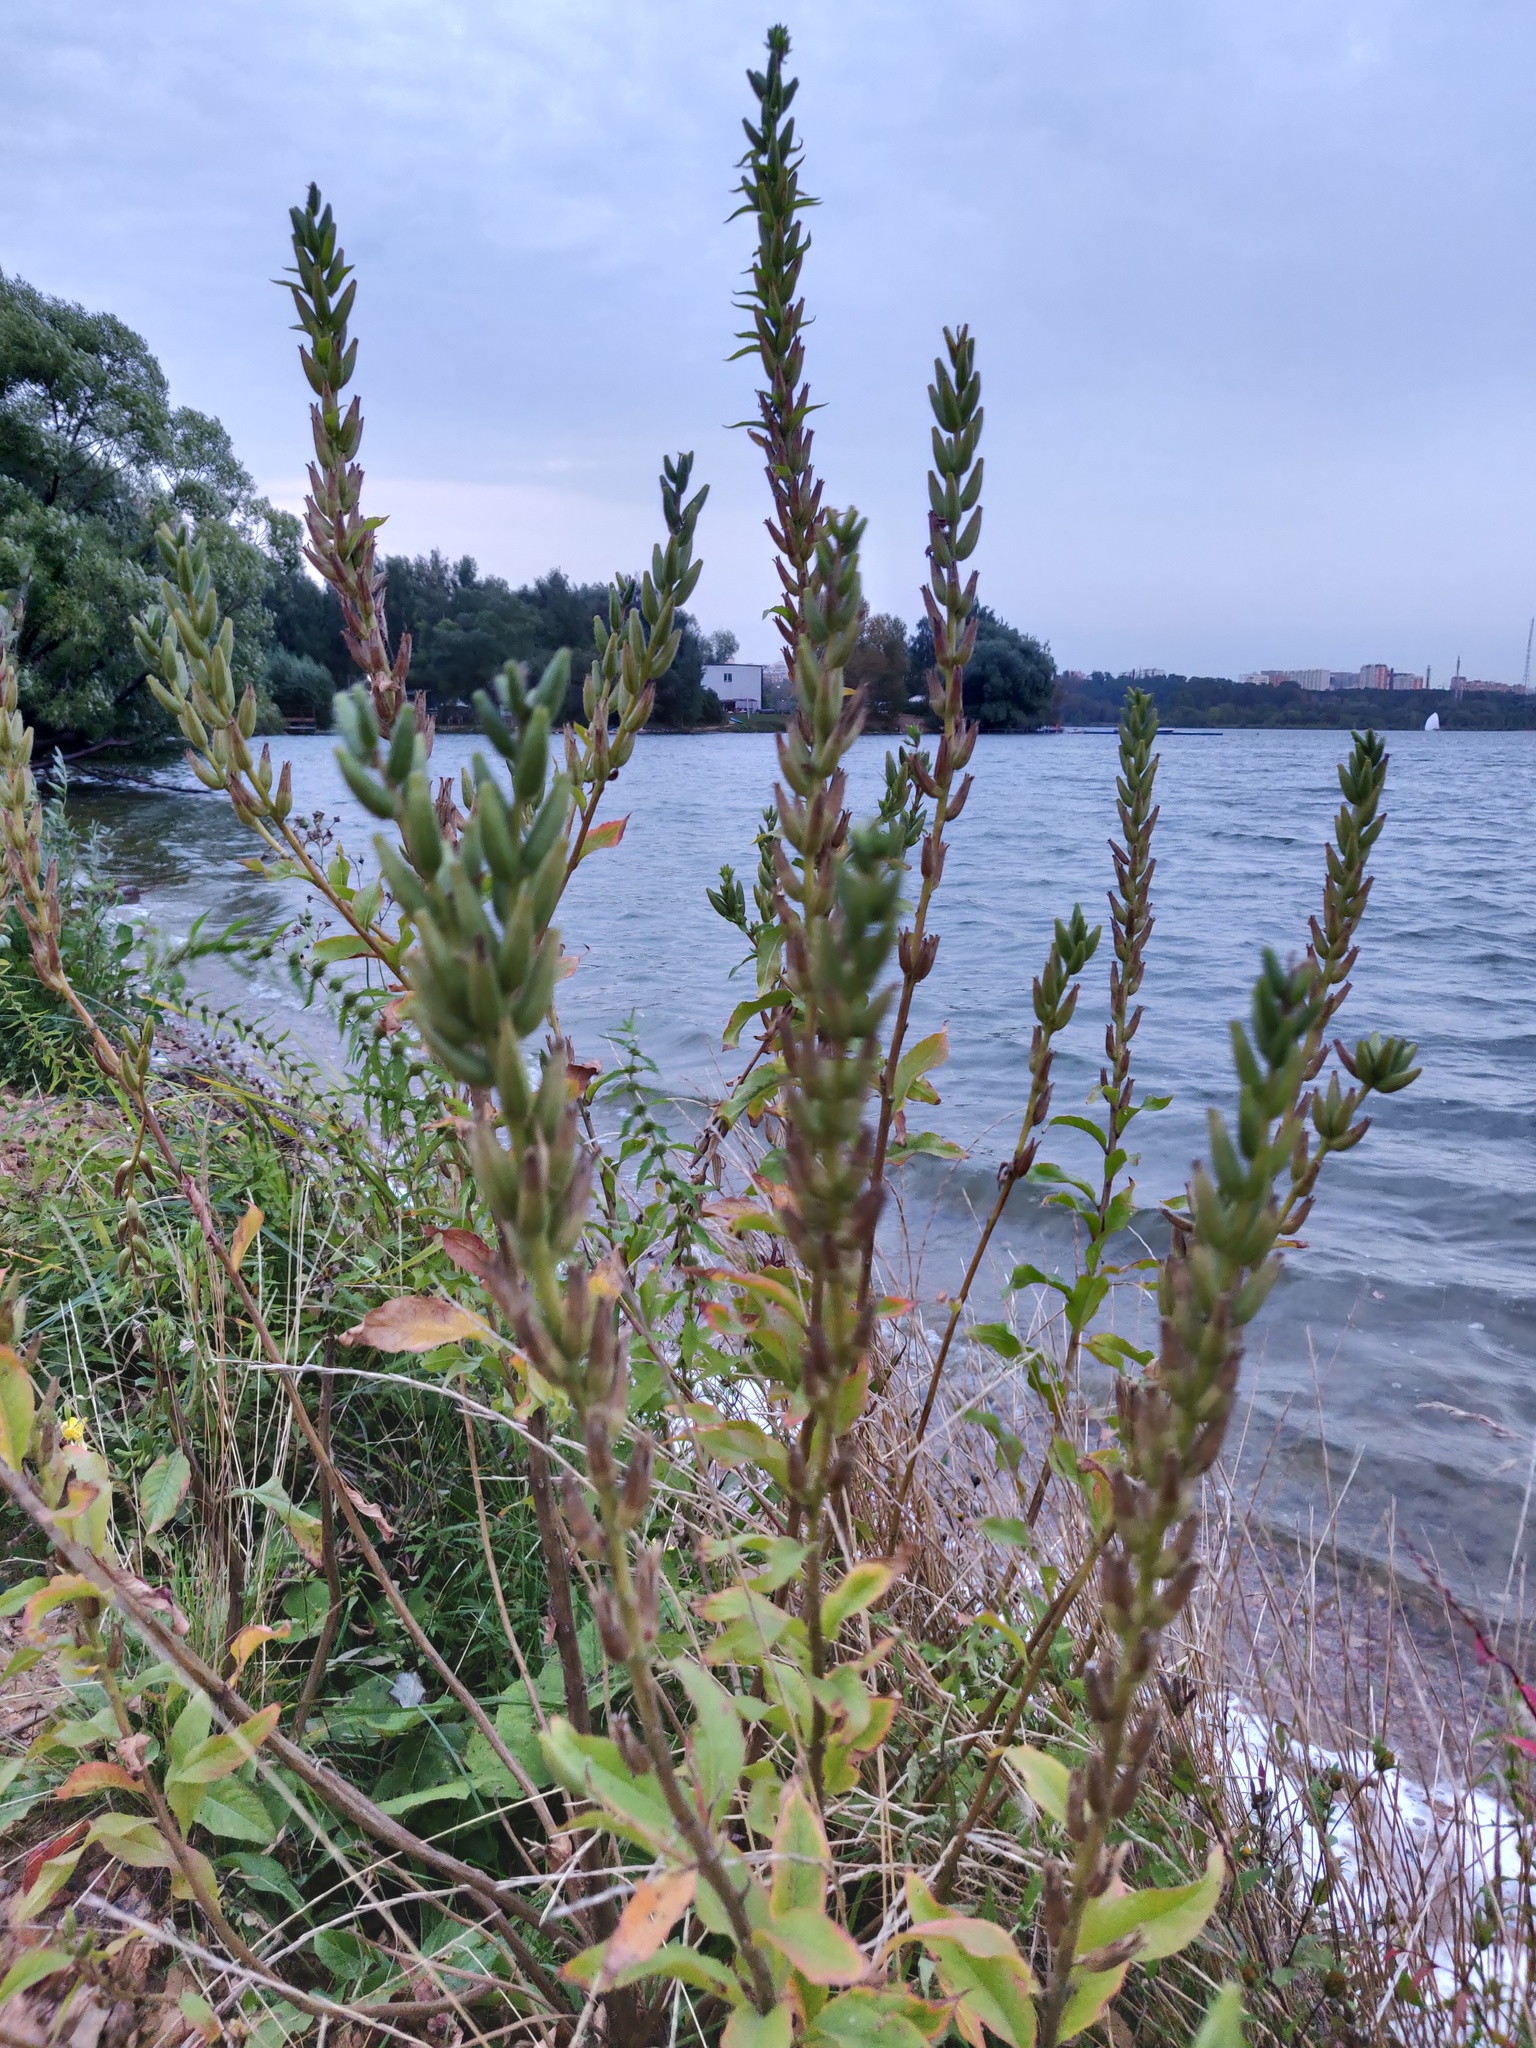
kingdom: Plantae
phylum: Tracheophyta
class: Magnoliopsida
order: Myrtales
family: Onagraceae
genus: Oenothera
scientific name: Oenothera rubricaulis
